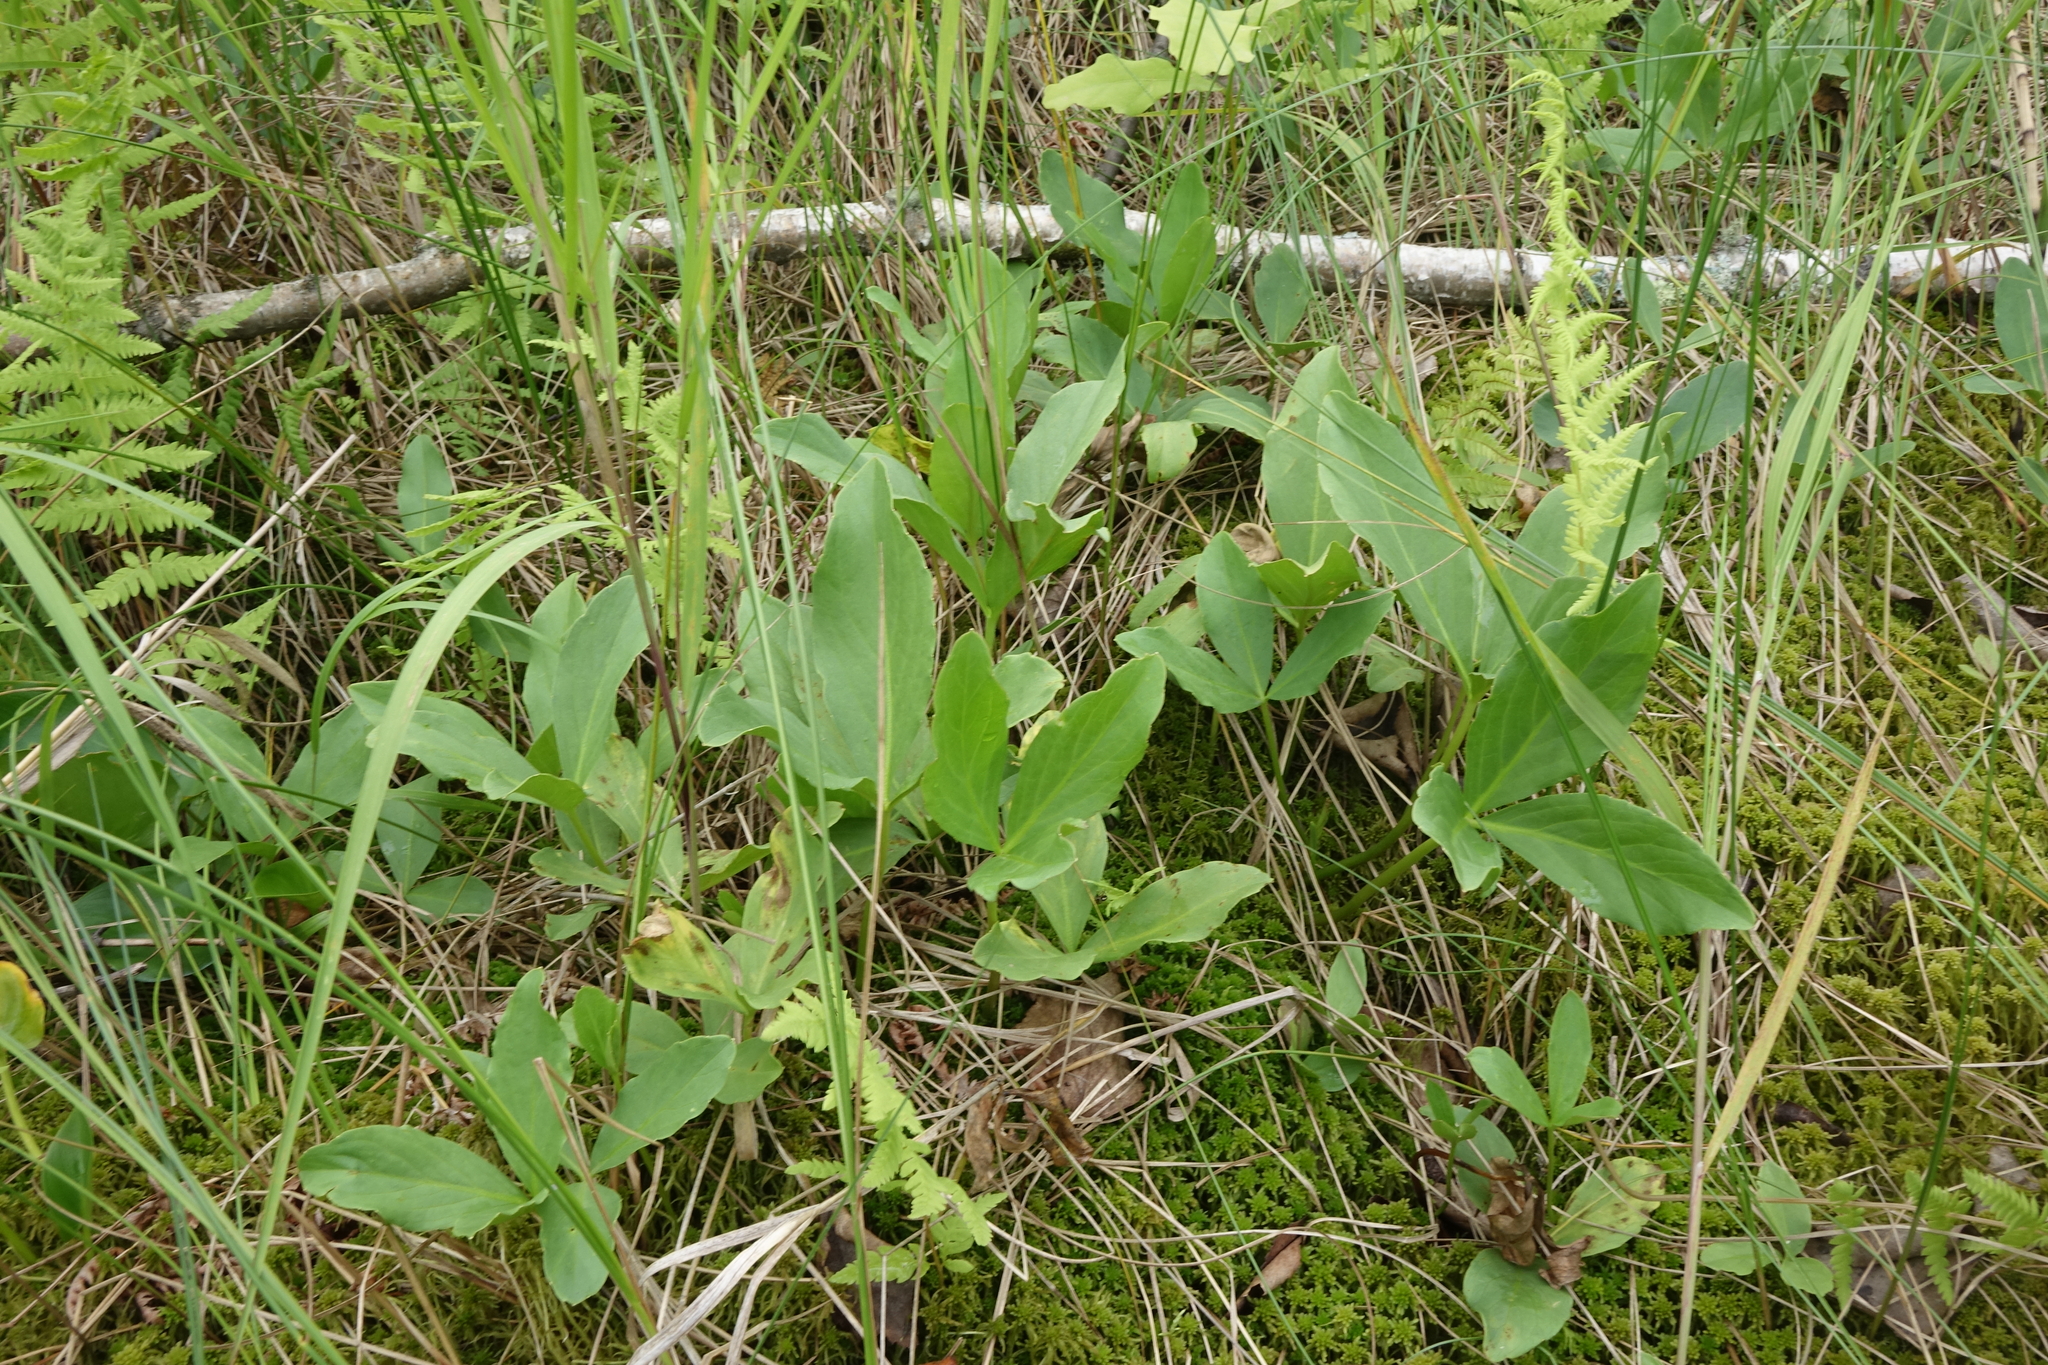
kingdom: Plantae
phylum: Tracheophyta
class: Magnoliopsida
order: Asterales
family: Menyanthaceae
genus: Menyanthes
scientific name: Menyanthes trifoliata
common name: Bogbean
